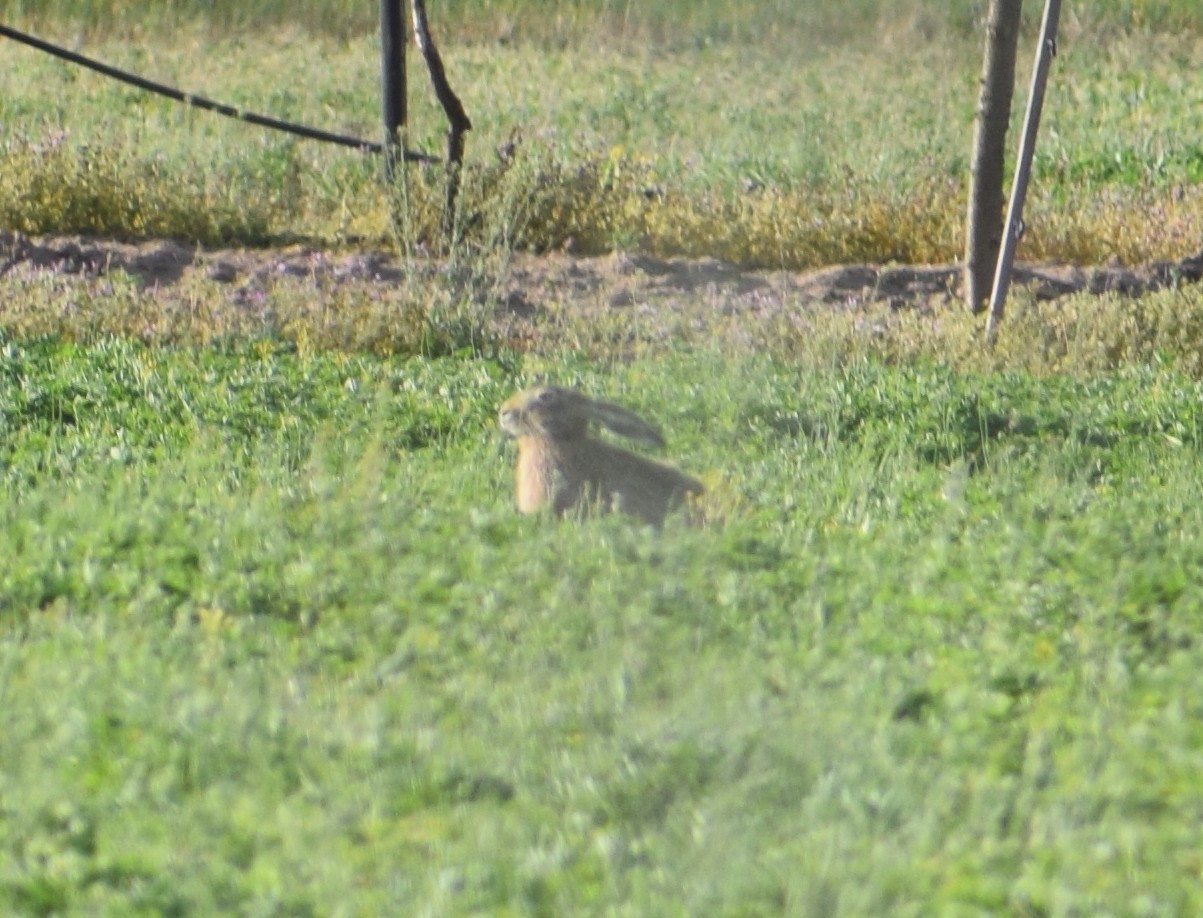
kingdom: Animalia
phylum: Chordata
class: Mammalia
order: Lagomorpha
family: Leporidae
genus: Lepus
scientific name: Lepus europaeus
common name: European hare
